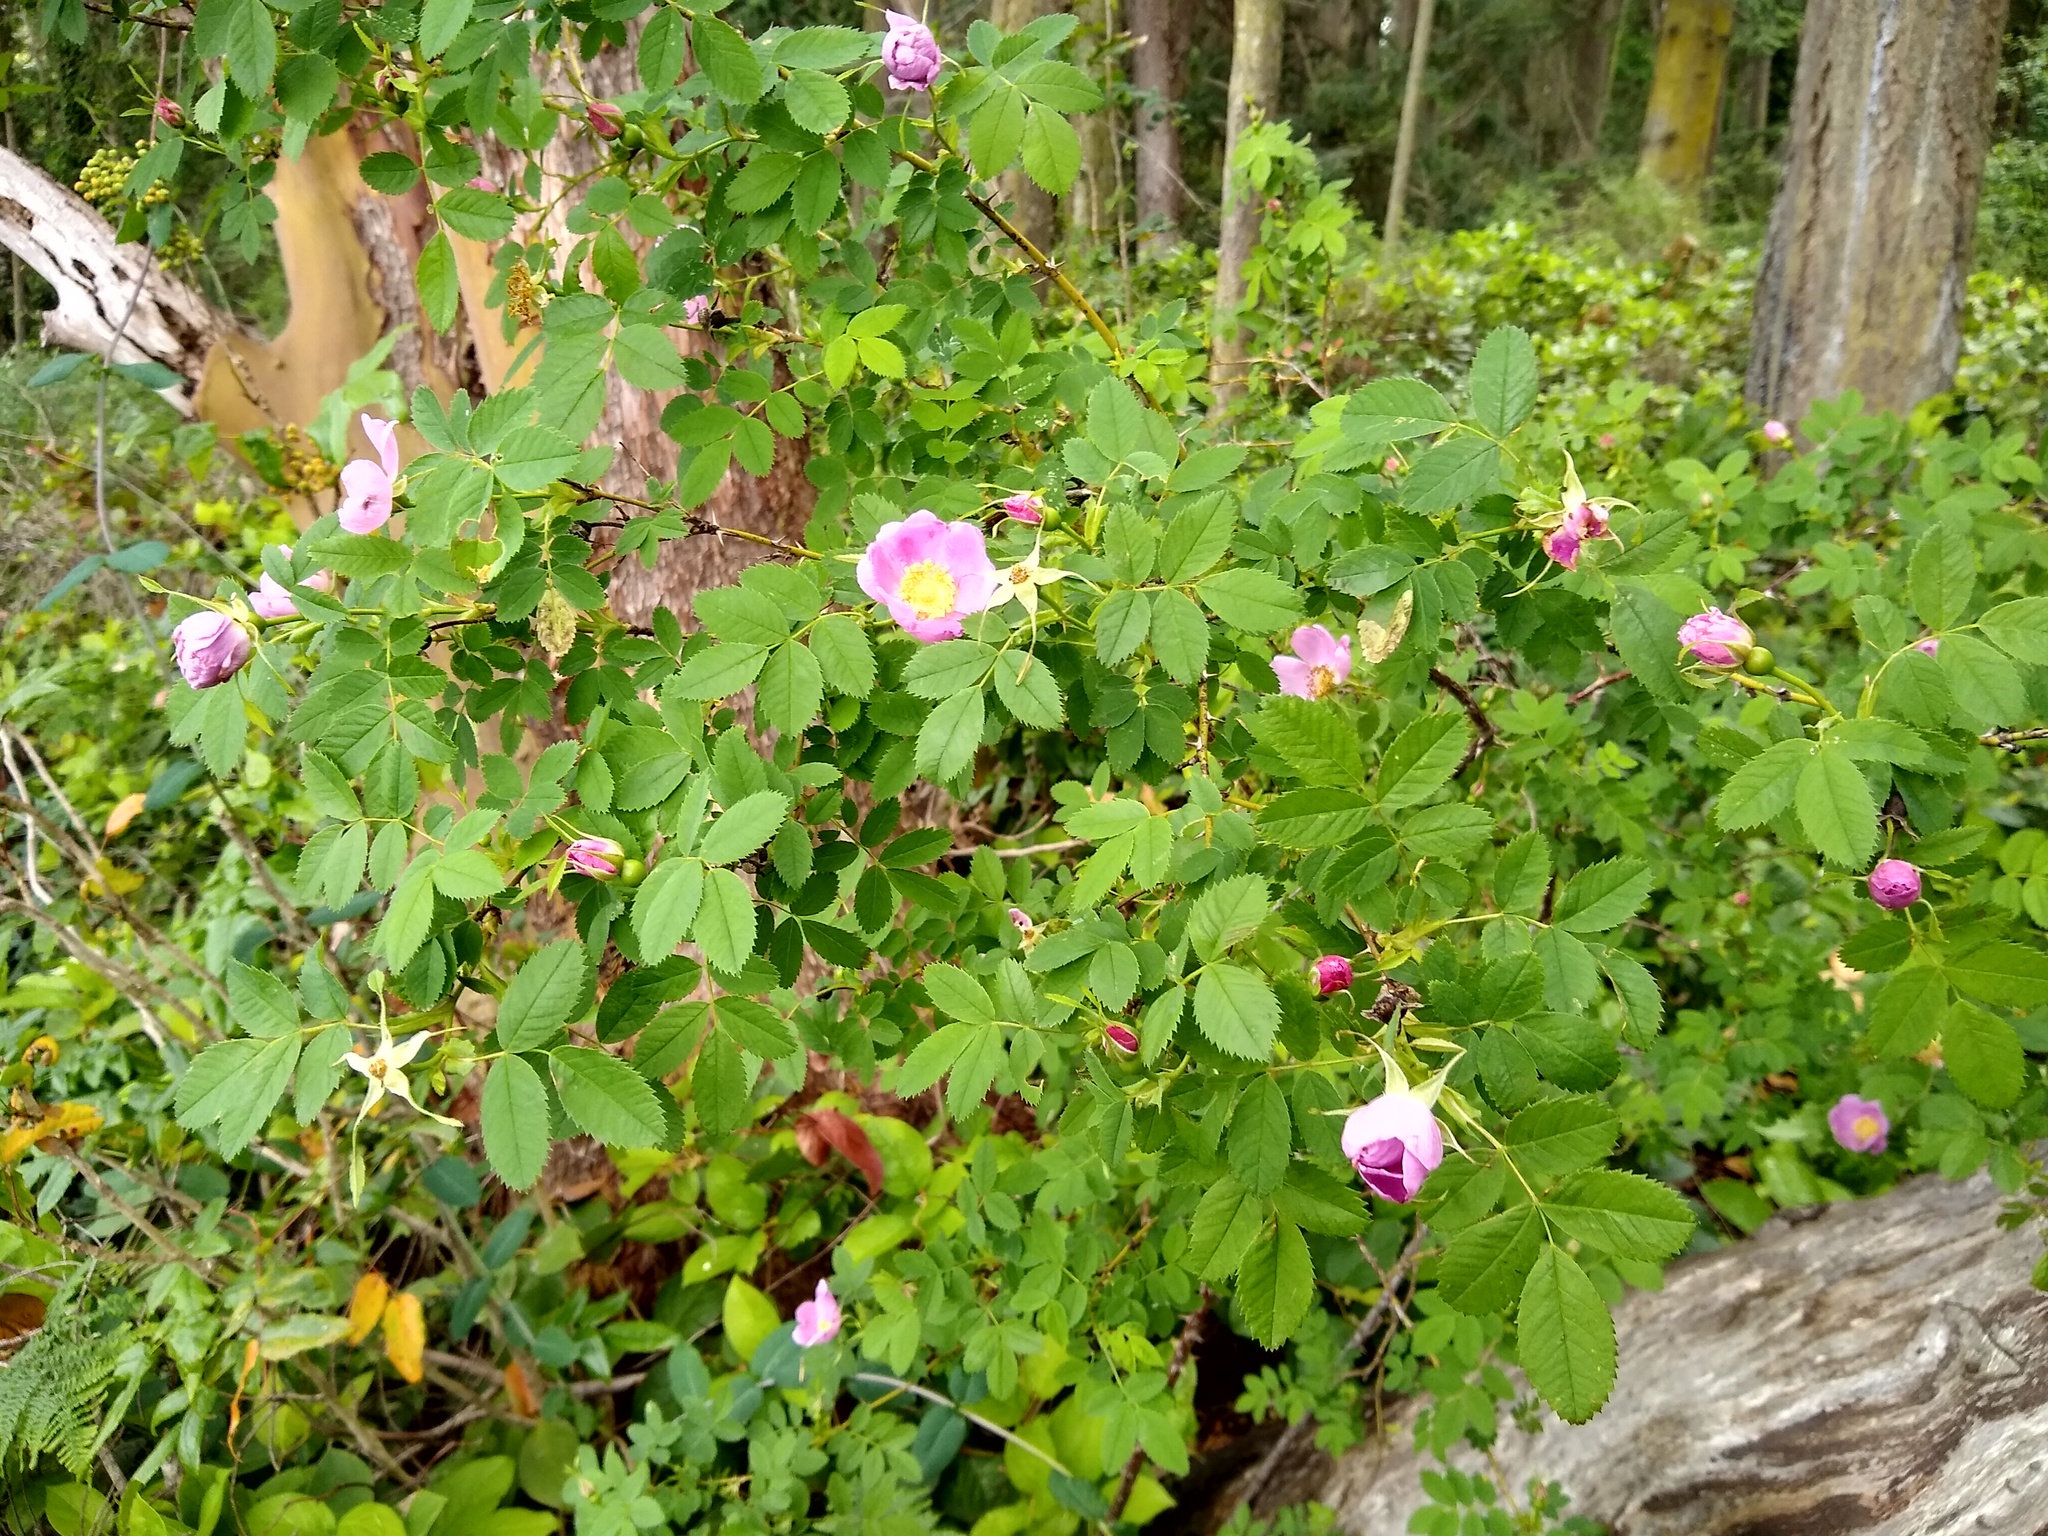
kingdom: Plantae
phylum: Tracheophyta
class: Magnoliopsida
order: Rosales
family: Rosaceae
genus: Rosa
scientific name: Rosa nutkana
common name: Nootka rose
